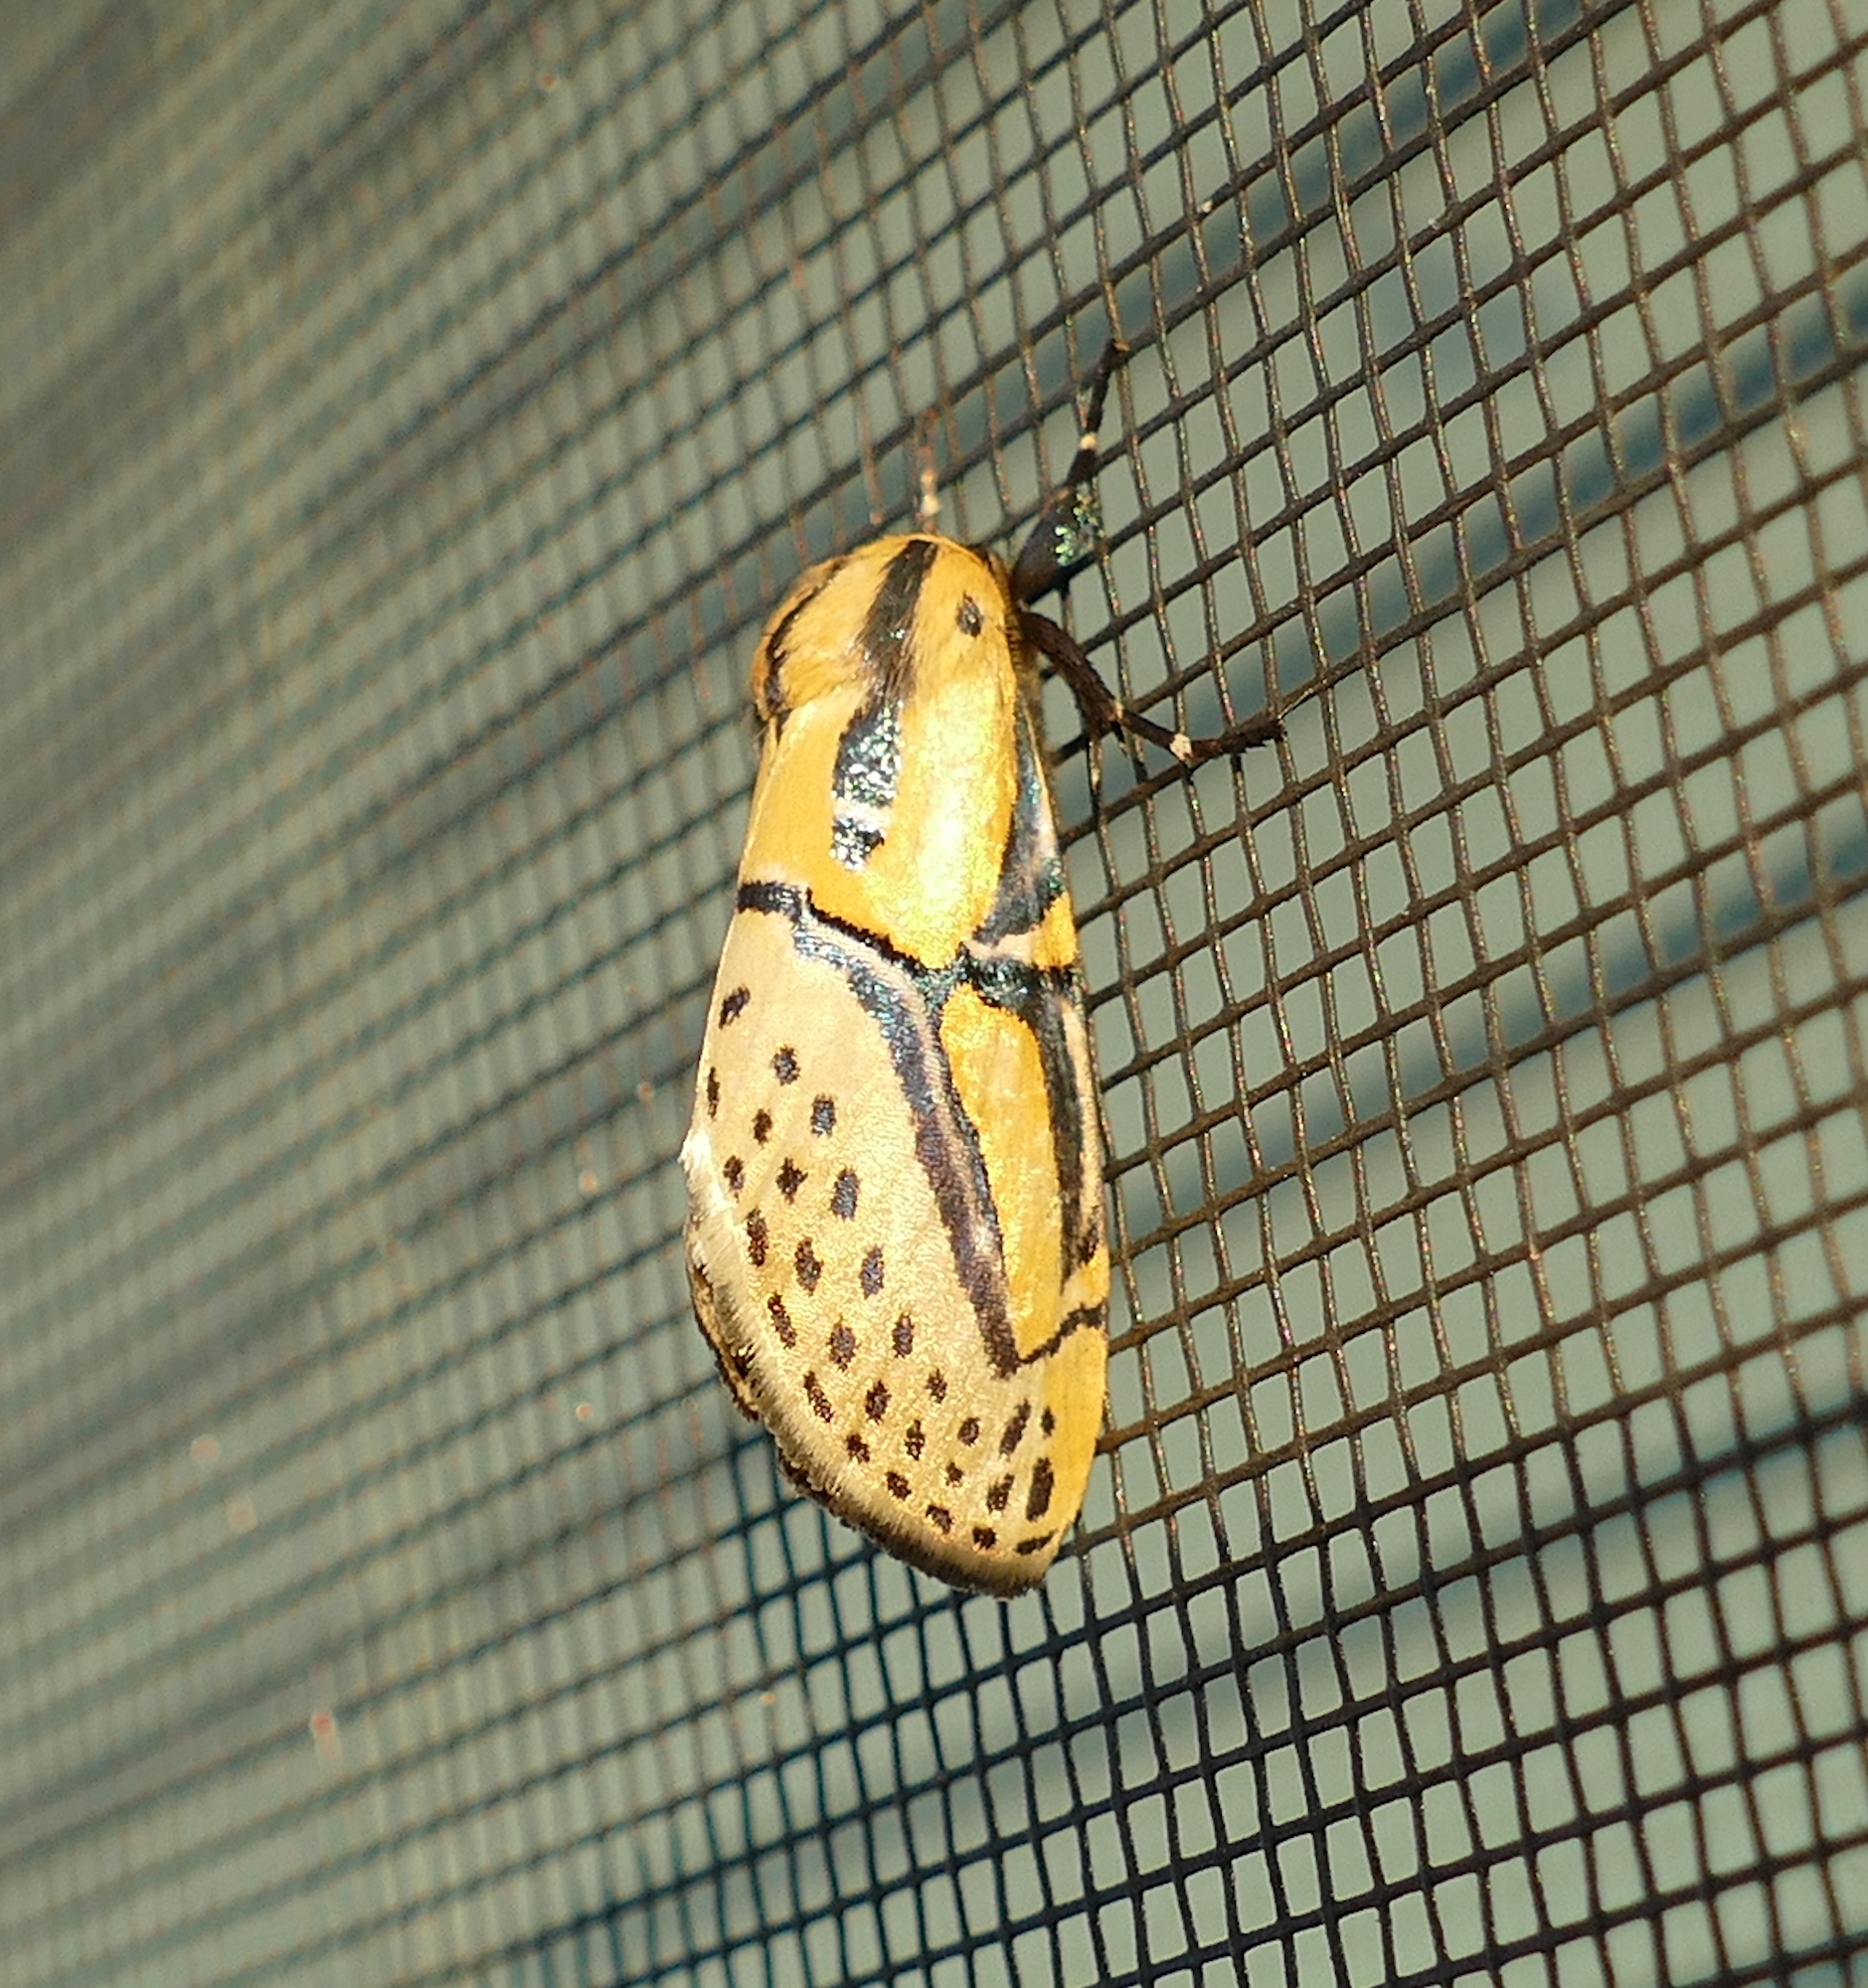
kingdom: Animalia
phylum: Arthropoda
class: Insecta
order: Lepidoptera
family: Erebidae
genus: Diphthera
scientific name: Diphthera festiva
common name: Hieroglyphic moth
